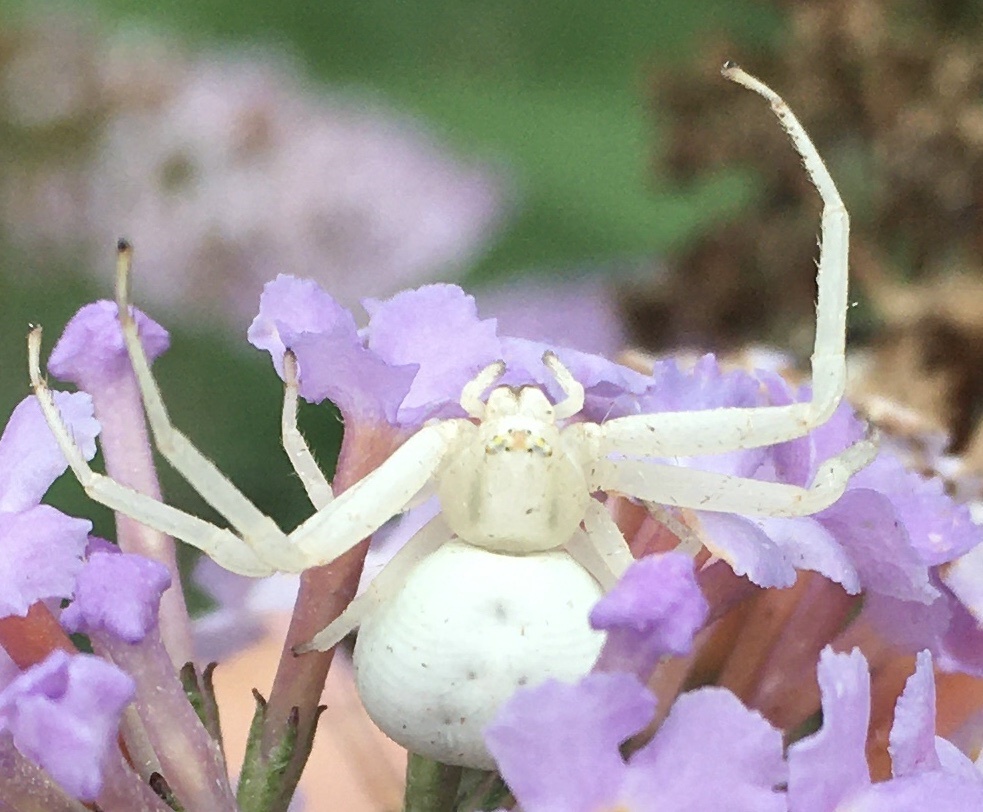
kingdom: Animalia
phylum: Arthropoda
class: Arachnida
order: Araneae
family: Thomisidae
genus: Misumena
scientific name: Misumena vatia
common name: Goldenrod crab spider
